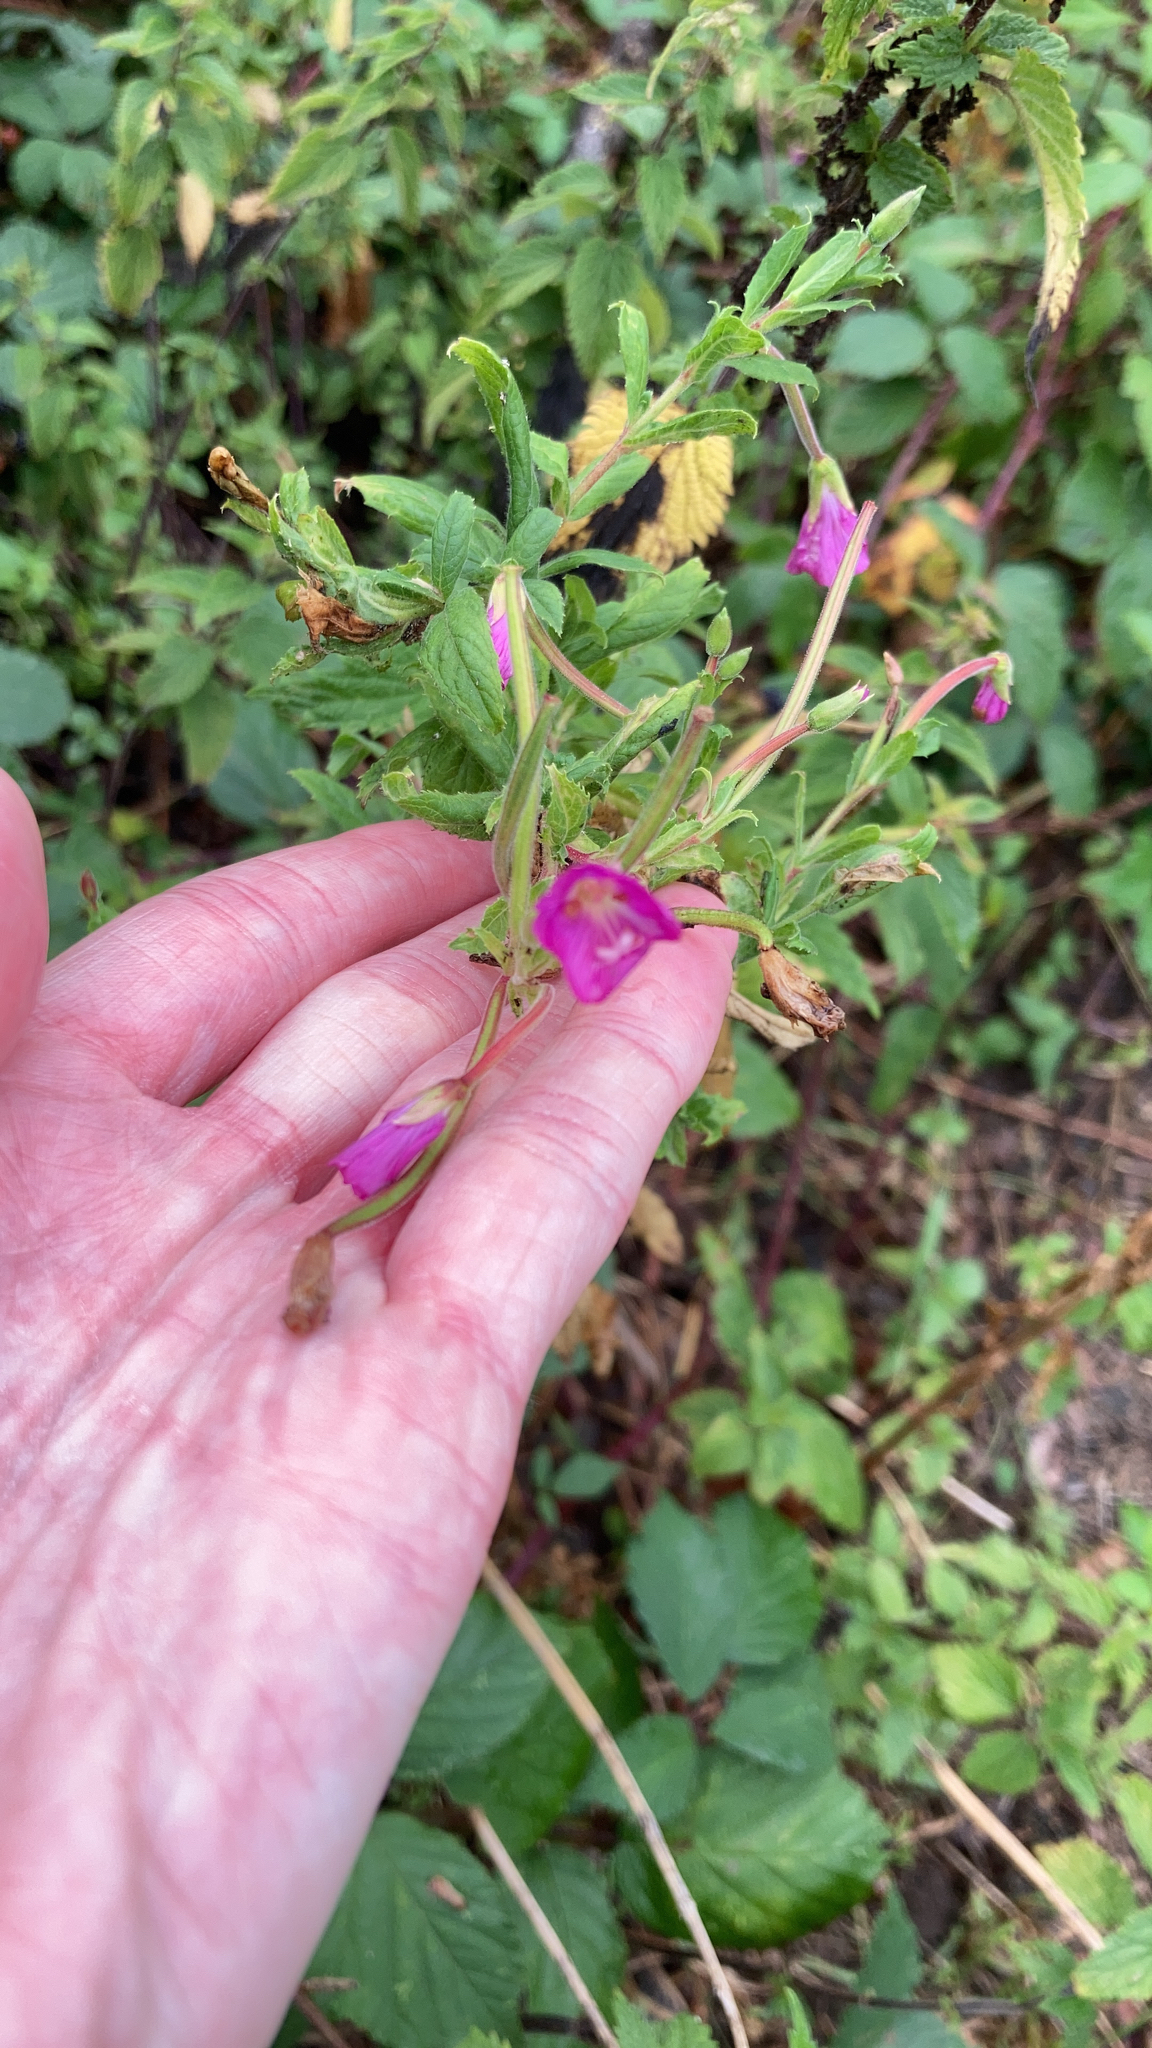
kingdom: Plantae
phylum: Tracheophyta
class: Magnoliopsida
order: Myrtales
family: Onagraceae
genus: Epilobium
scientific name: Epilobium hirsutum
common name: Great willowherb
